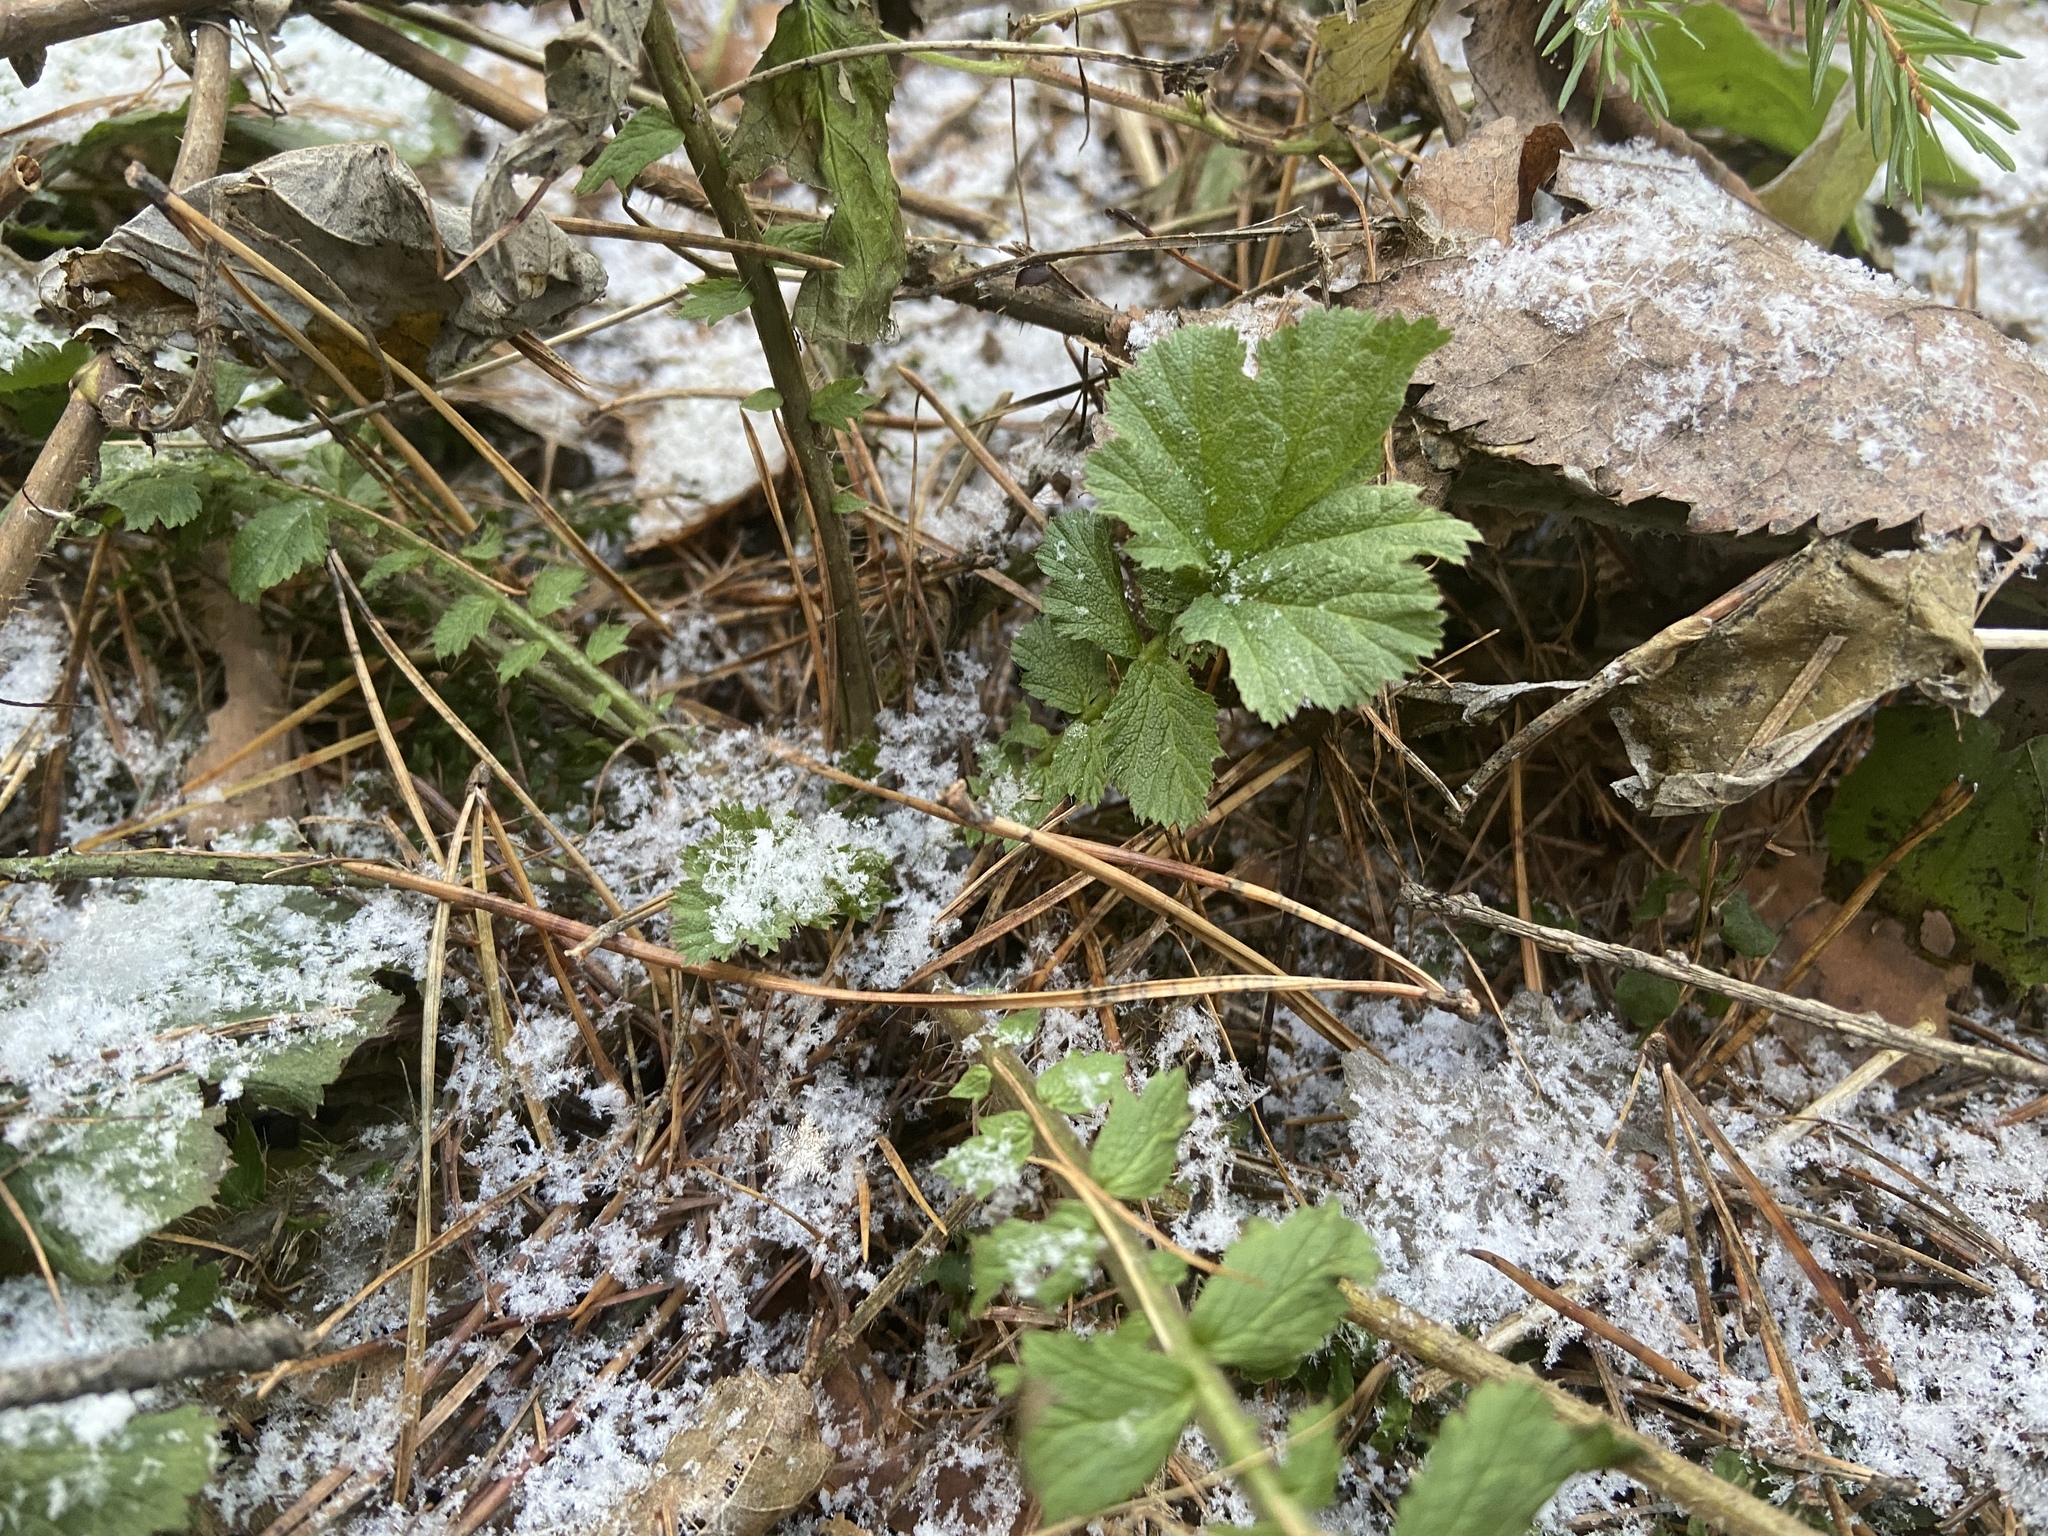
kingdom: Plantae
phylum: Tracheophyta
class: Magnoliopsida
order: Rosales
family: Rosaceae
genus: Geum
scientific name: Geum macrophyllum
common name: Large-leaved avens
